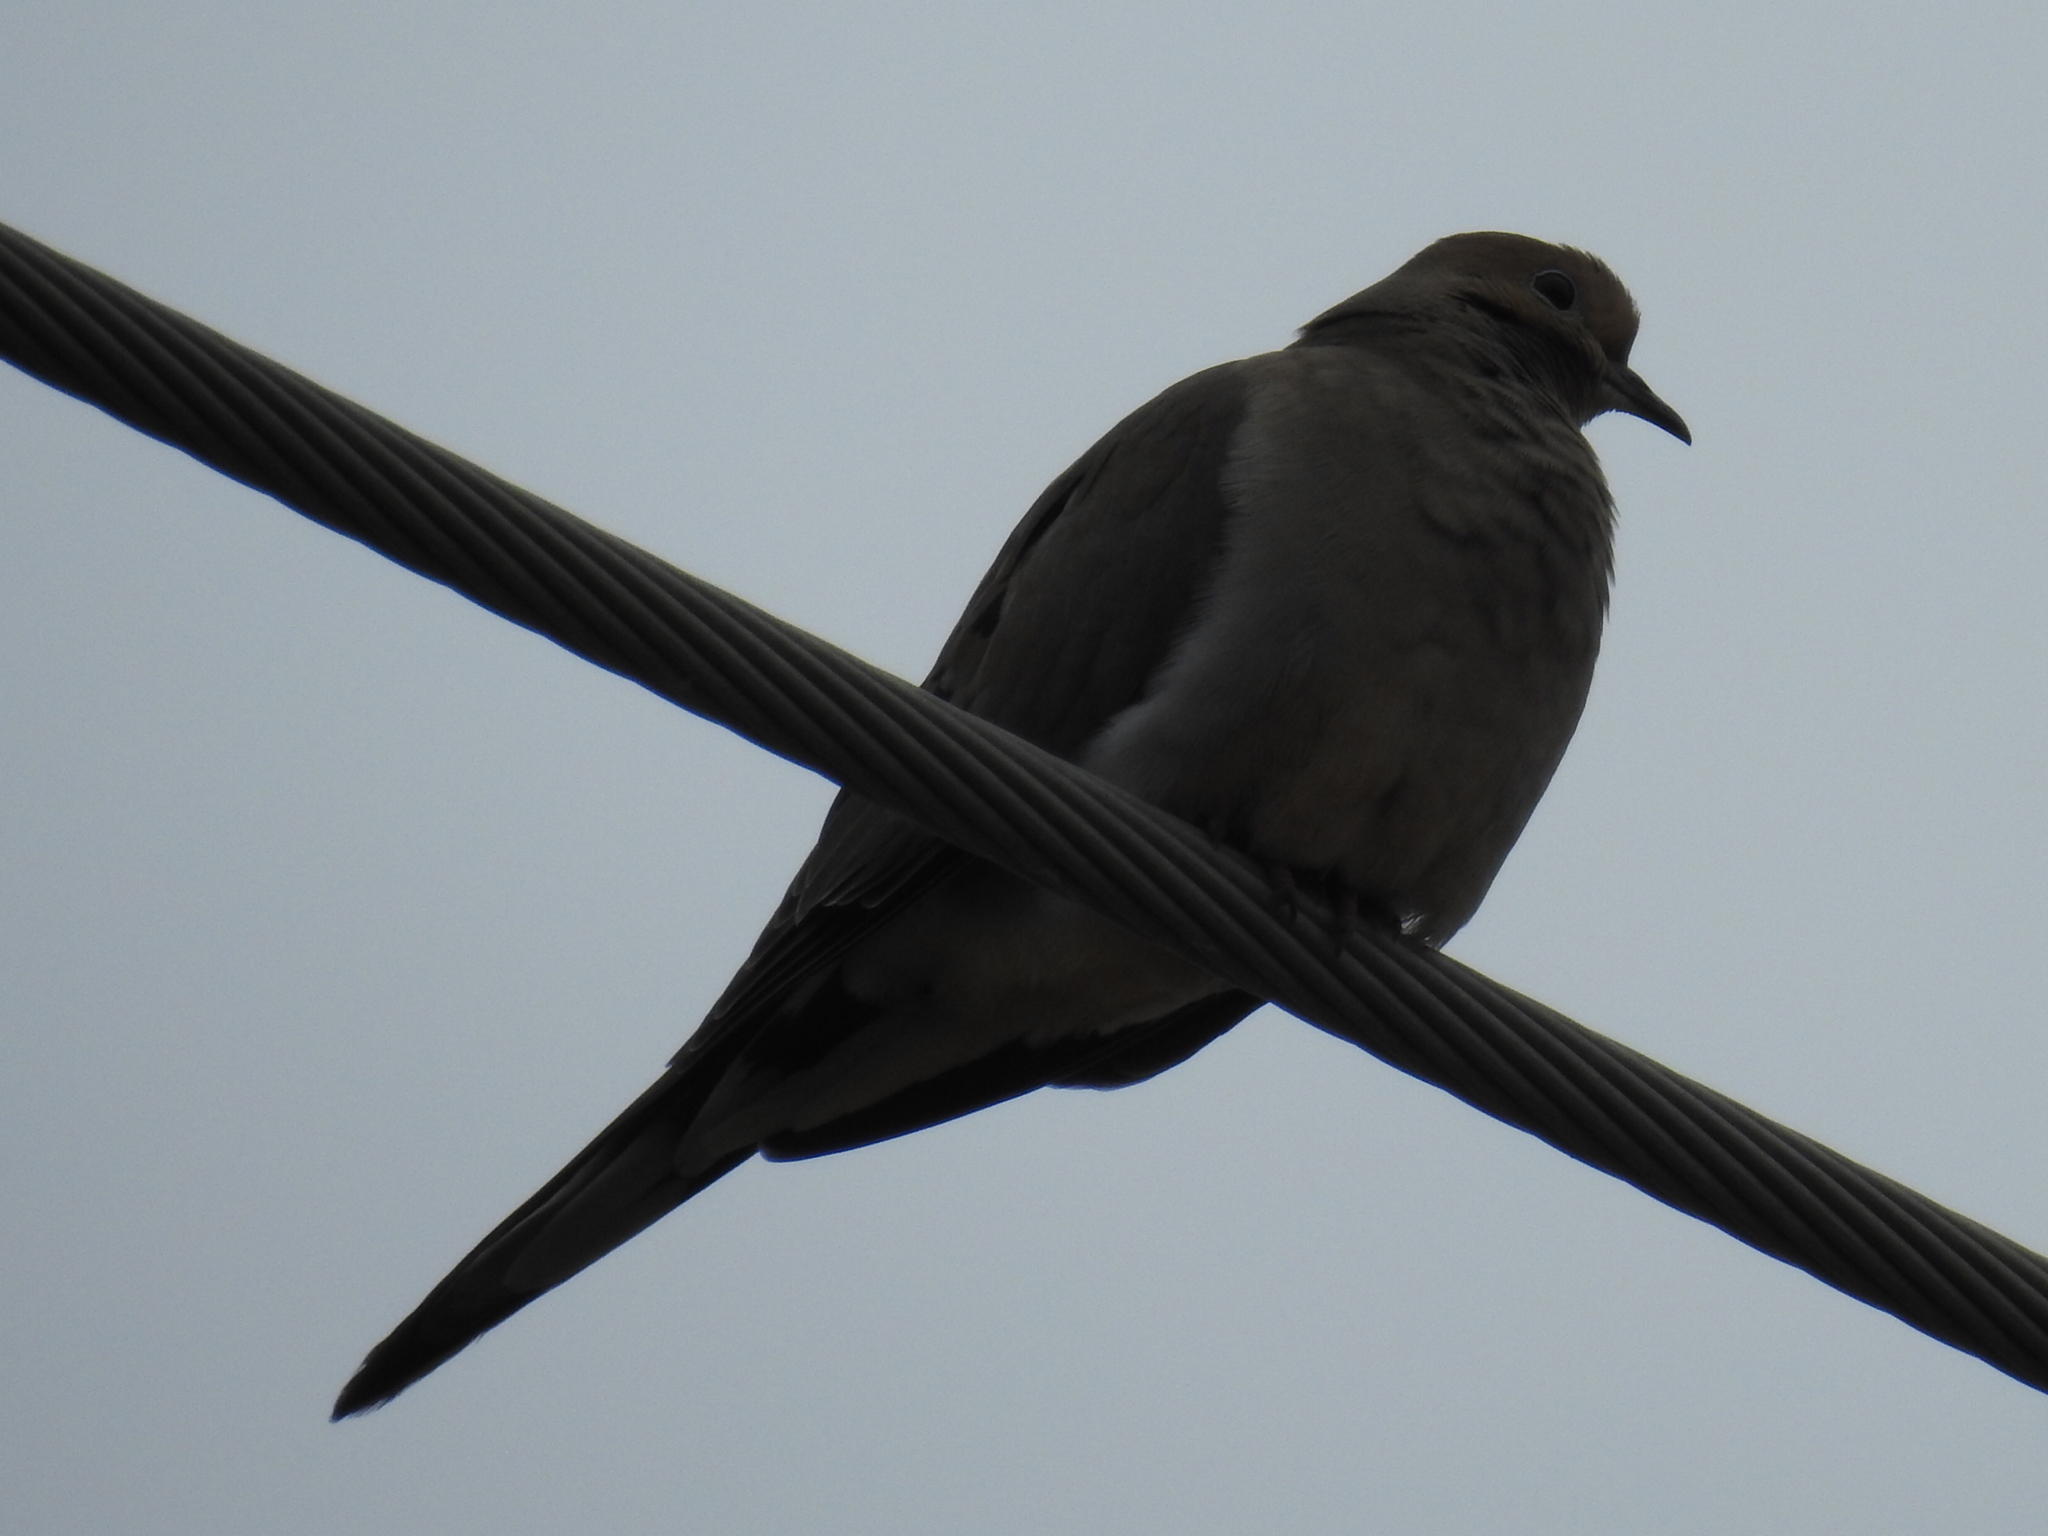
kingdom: Animalia
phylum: Chordata
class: Aves
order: Columbiformes
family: Columbidae
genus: Zenaida
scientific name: Zenaida macroura
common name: Mourning dove
